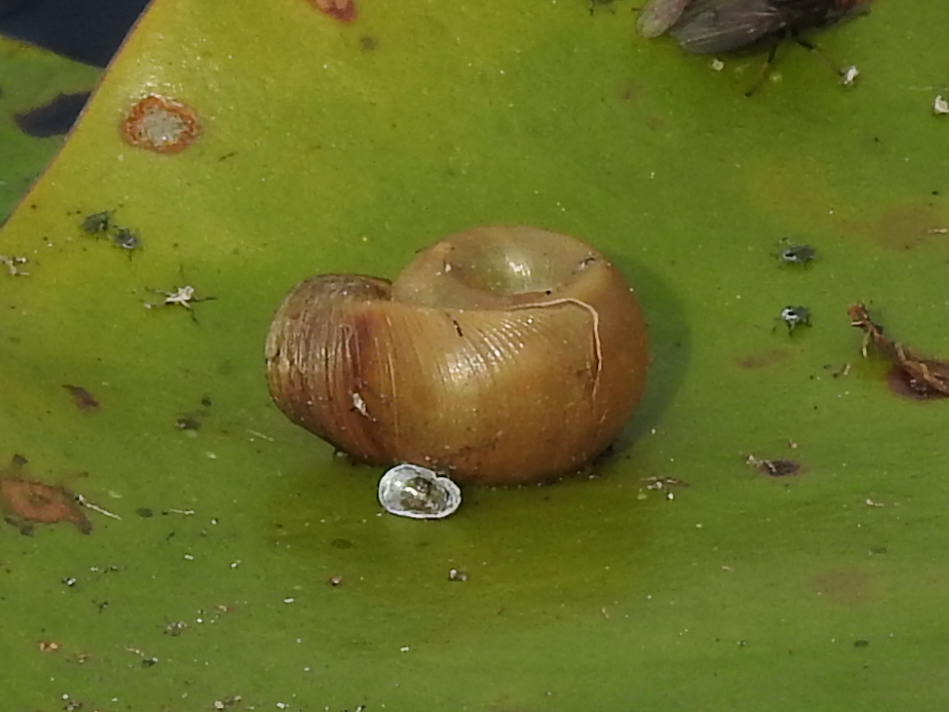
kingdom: Animalia
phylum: Mollusca
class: Gastropoda
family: Planorbidae
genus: Planorbella
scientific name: Planorbella campanulata
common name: Bellmouth ramshorn
